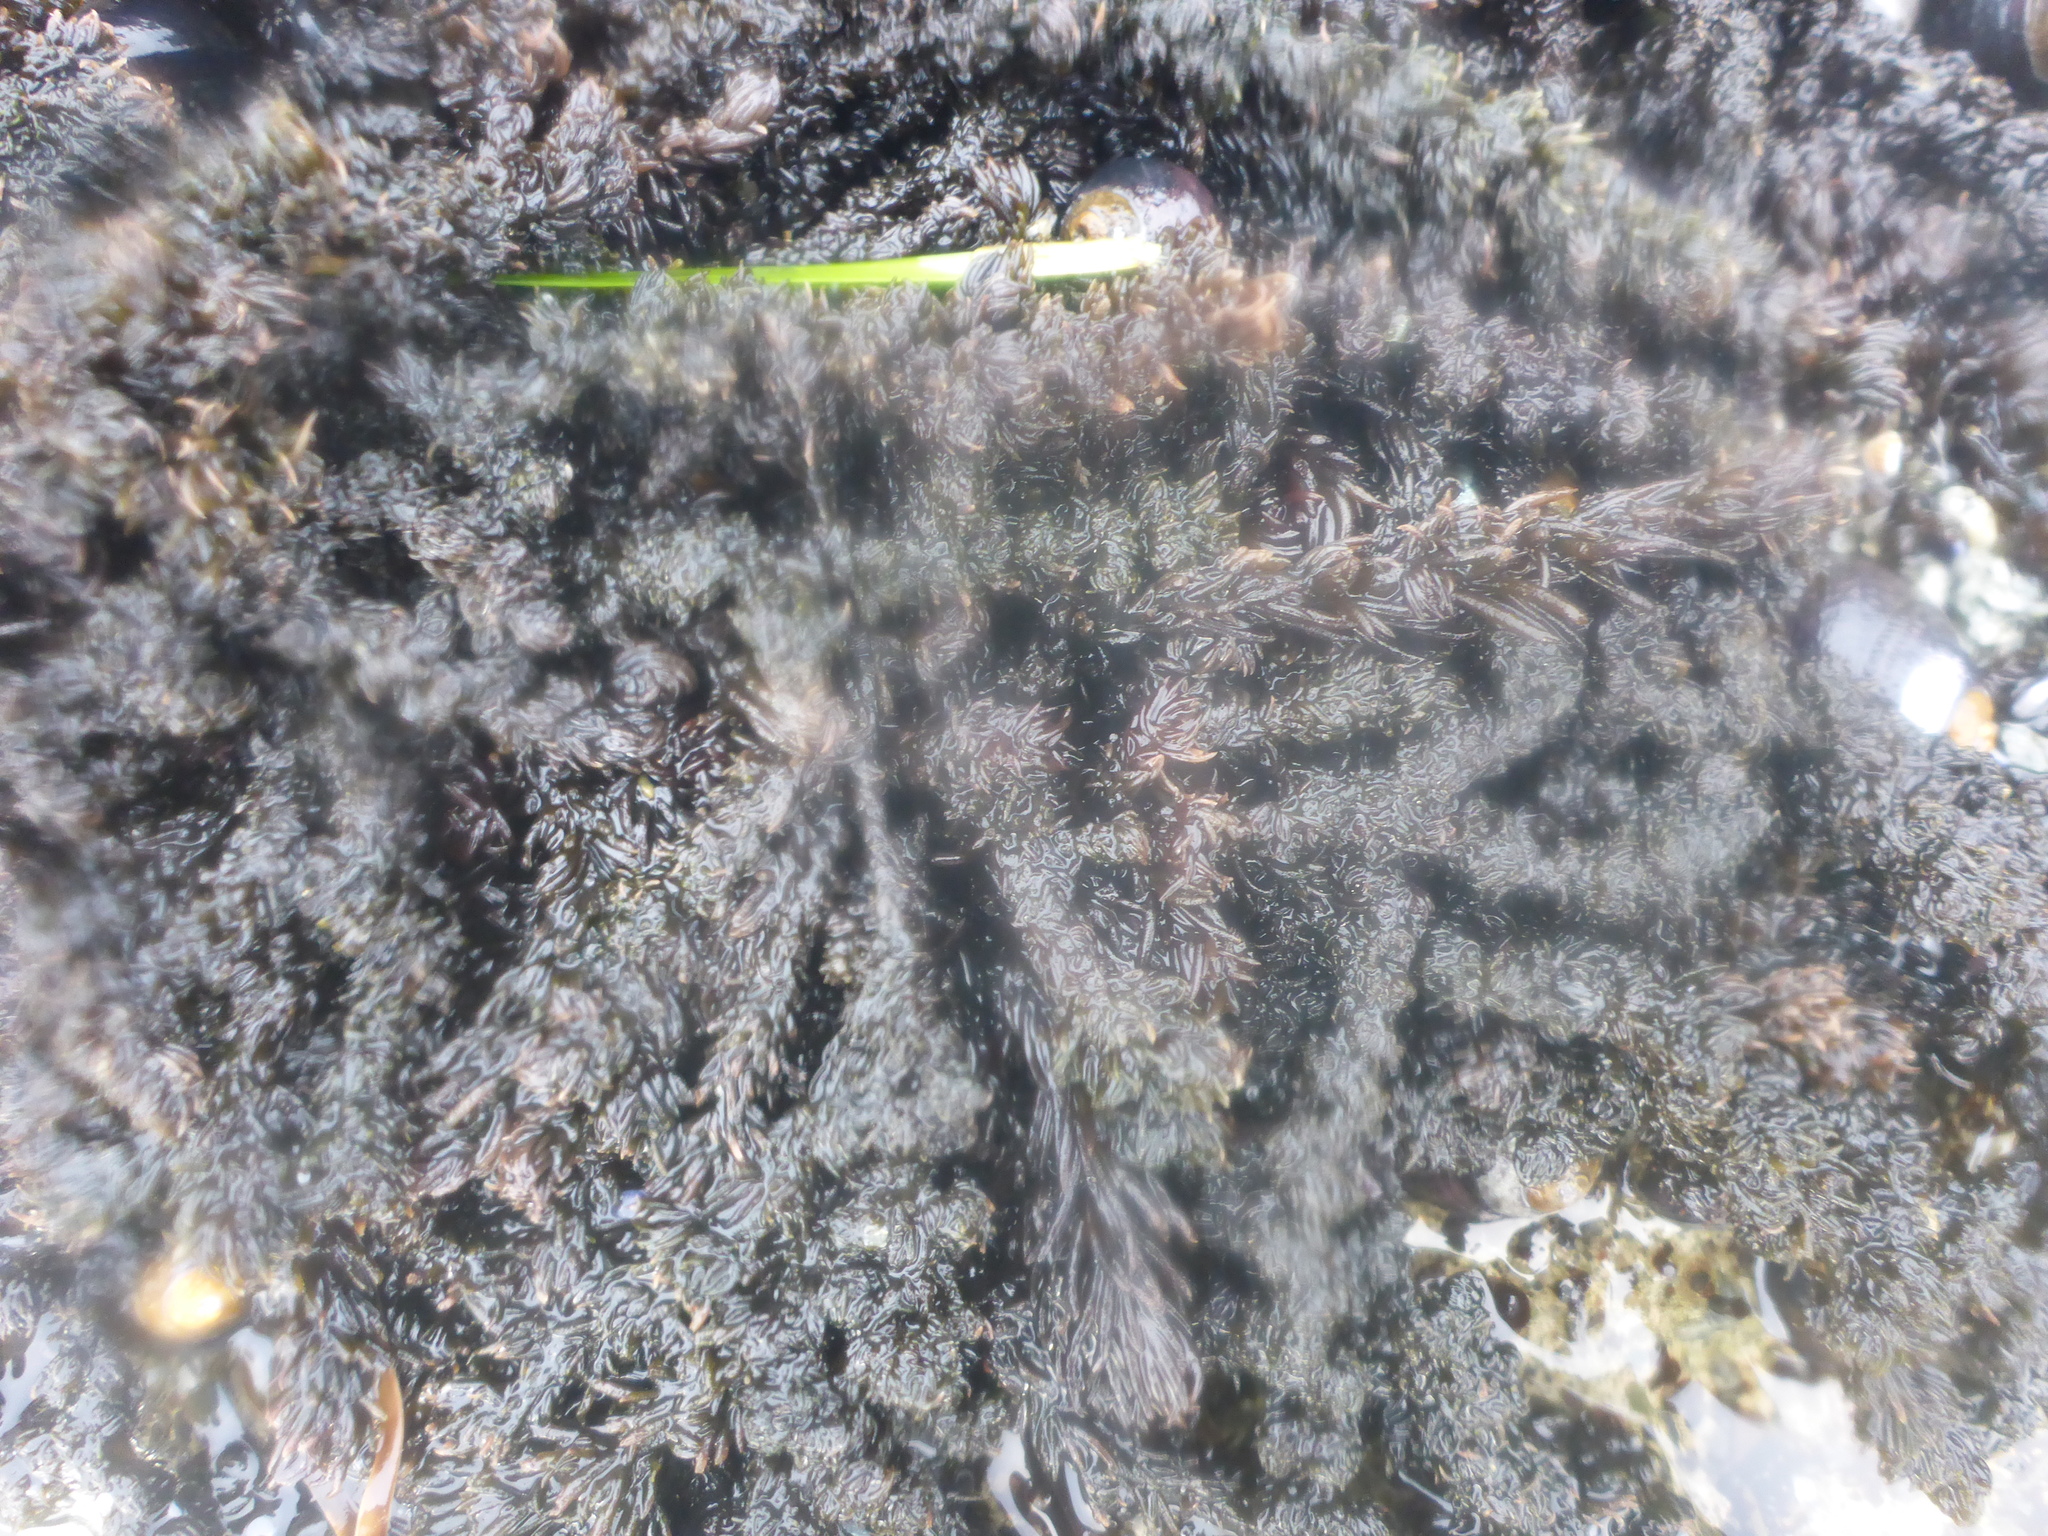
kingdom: Plantae
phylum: Rhodophyta
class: Florideophyceae
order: Ceramiales
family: Rhodomelaceae
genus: Neorhodomela
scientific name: Neorhodomela larix
